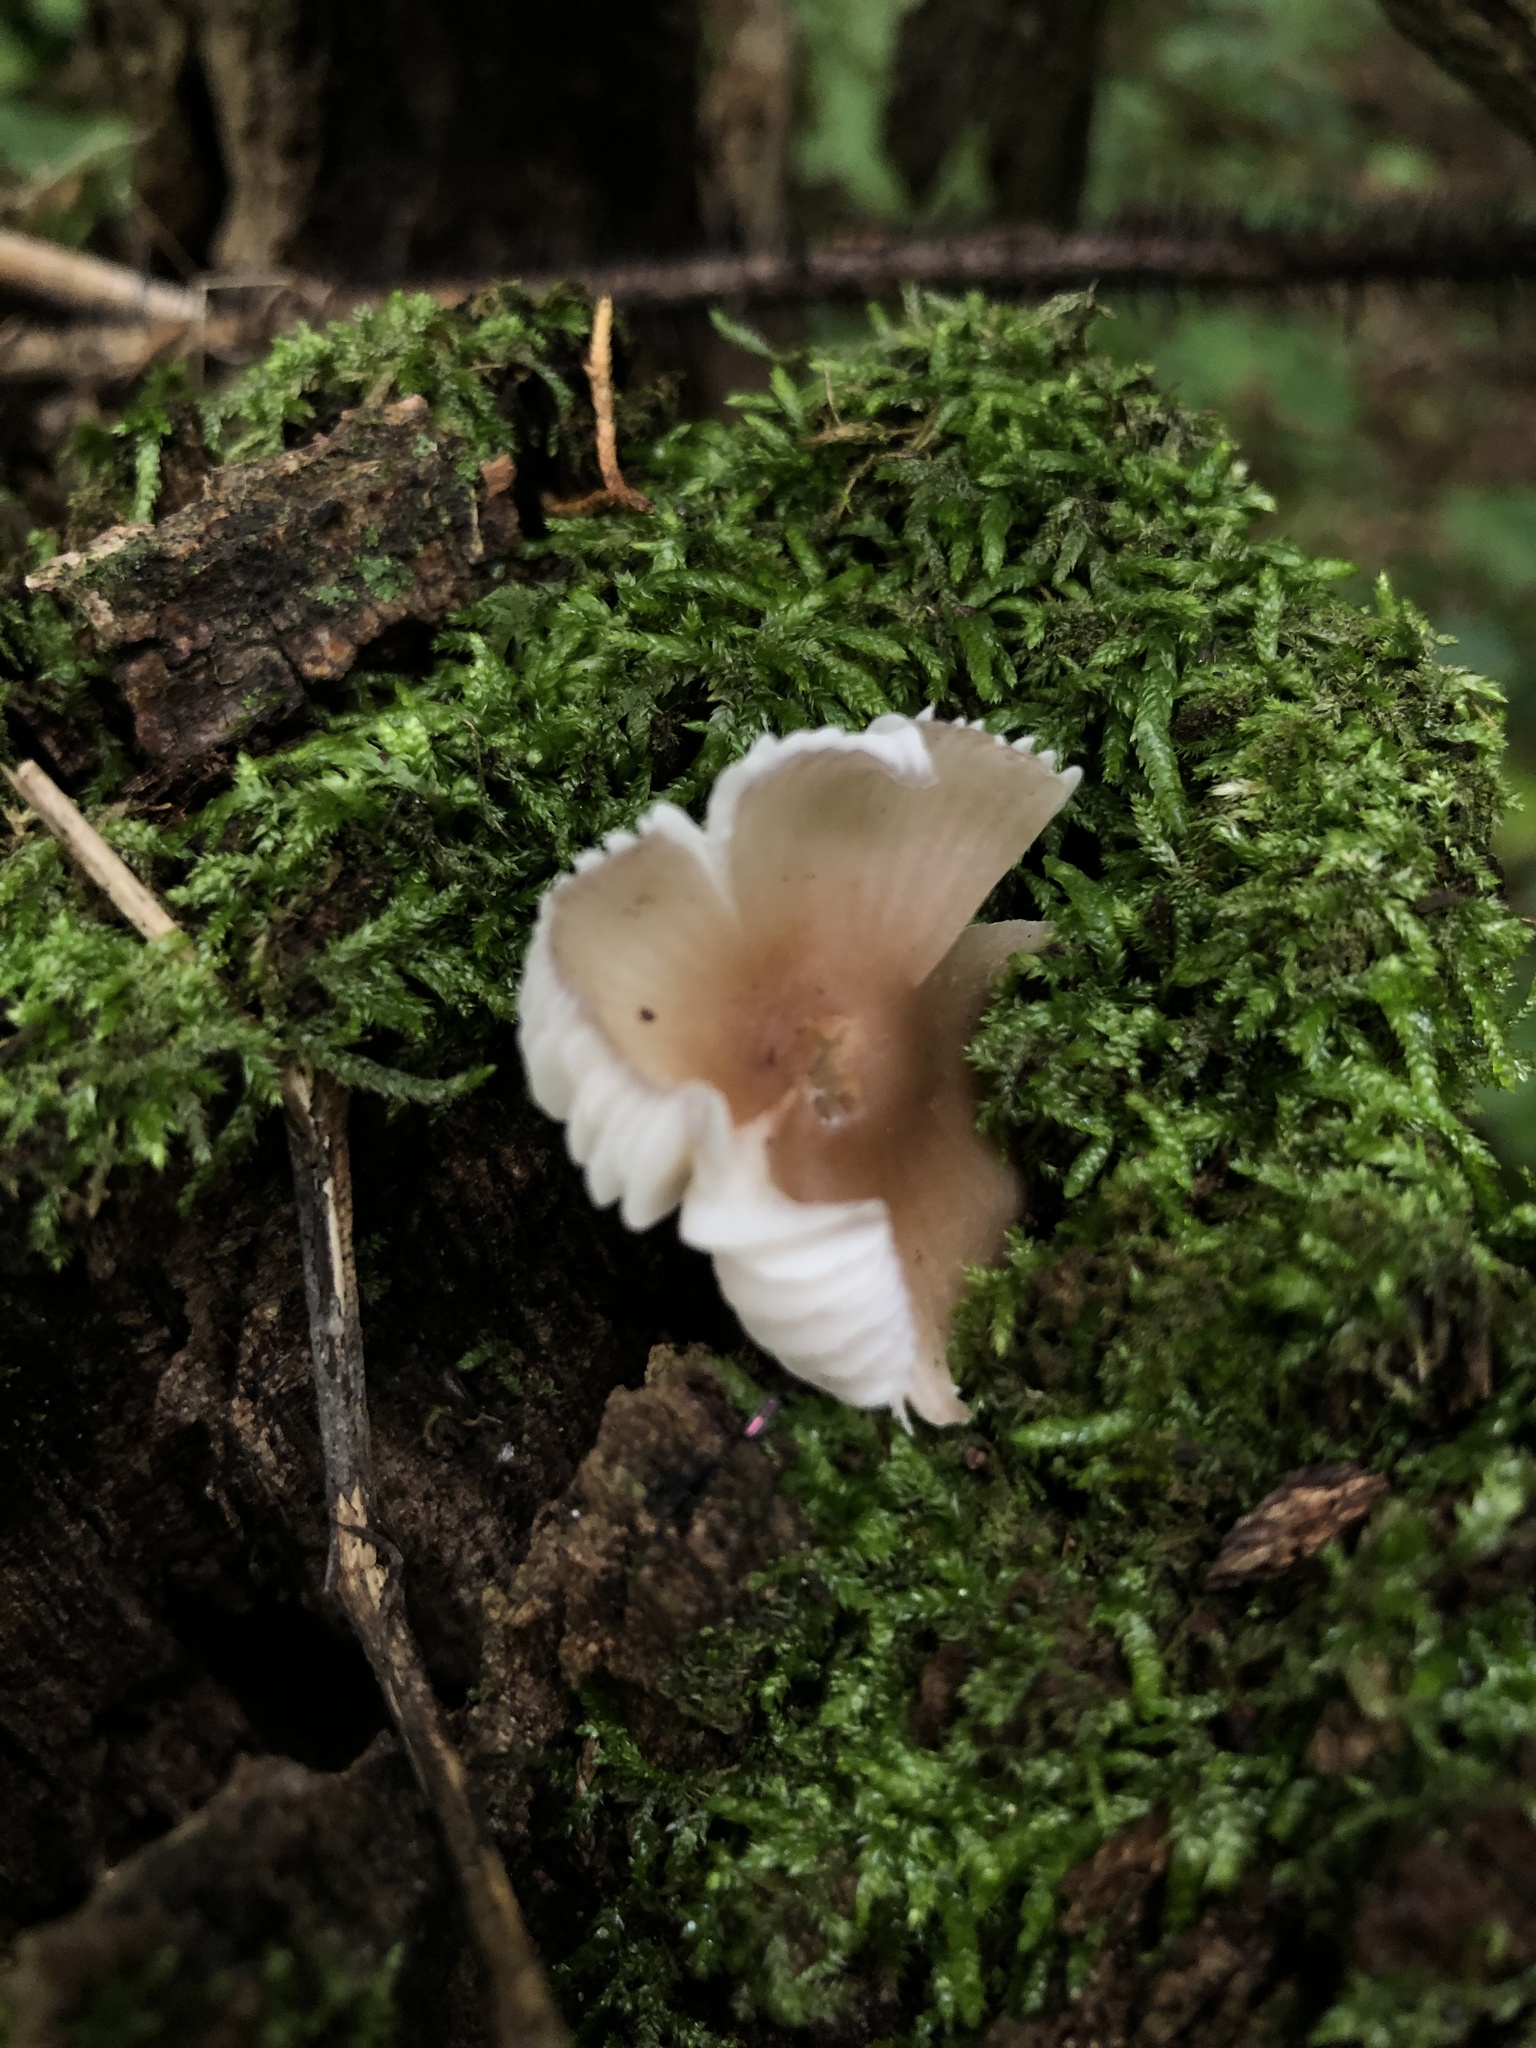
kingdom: Fungi
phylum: Basidiomycota
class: Agaricomycetes
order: Agaricales
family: Mycenaceae
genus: Mycena
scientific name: Mycena inclinata
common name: Clustered bonnet
